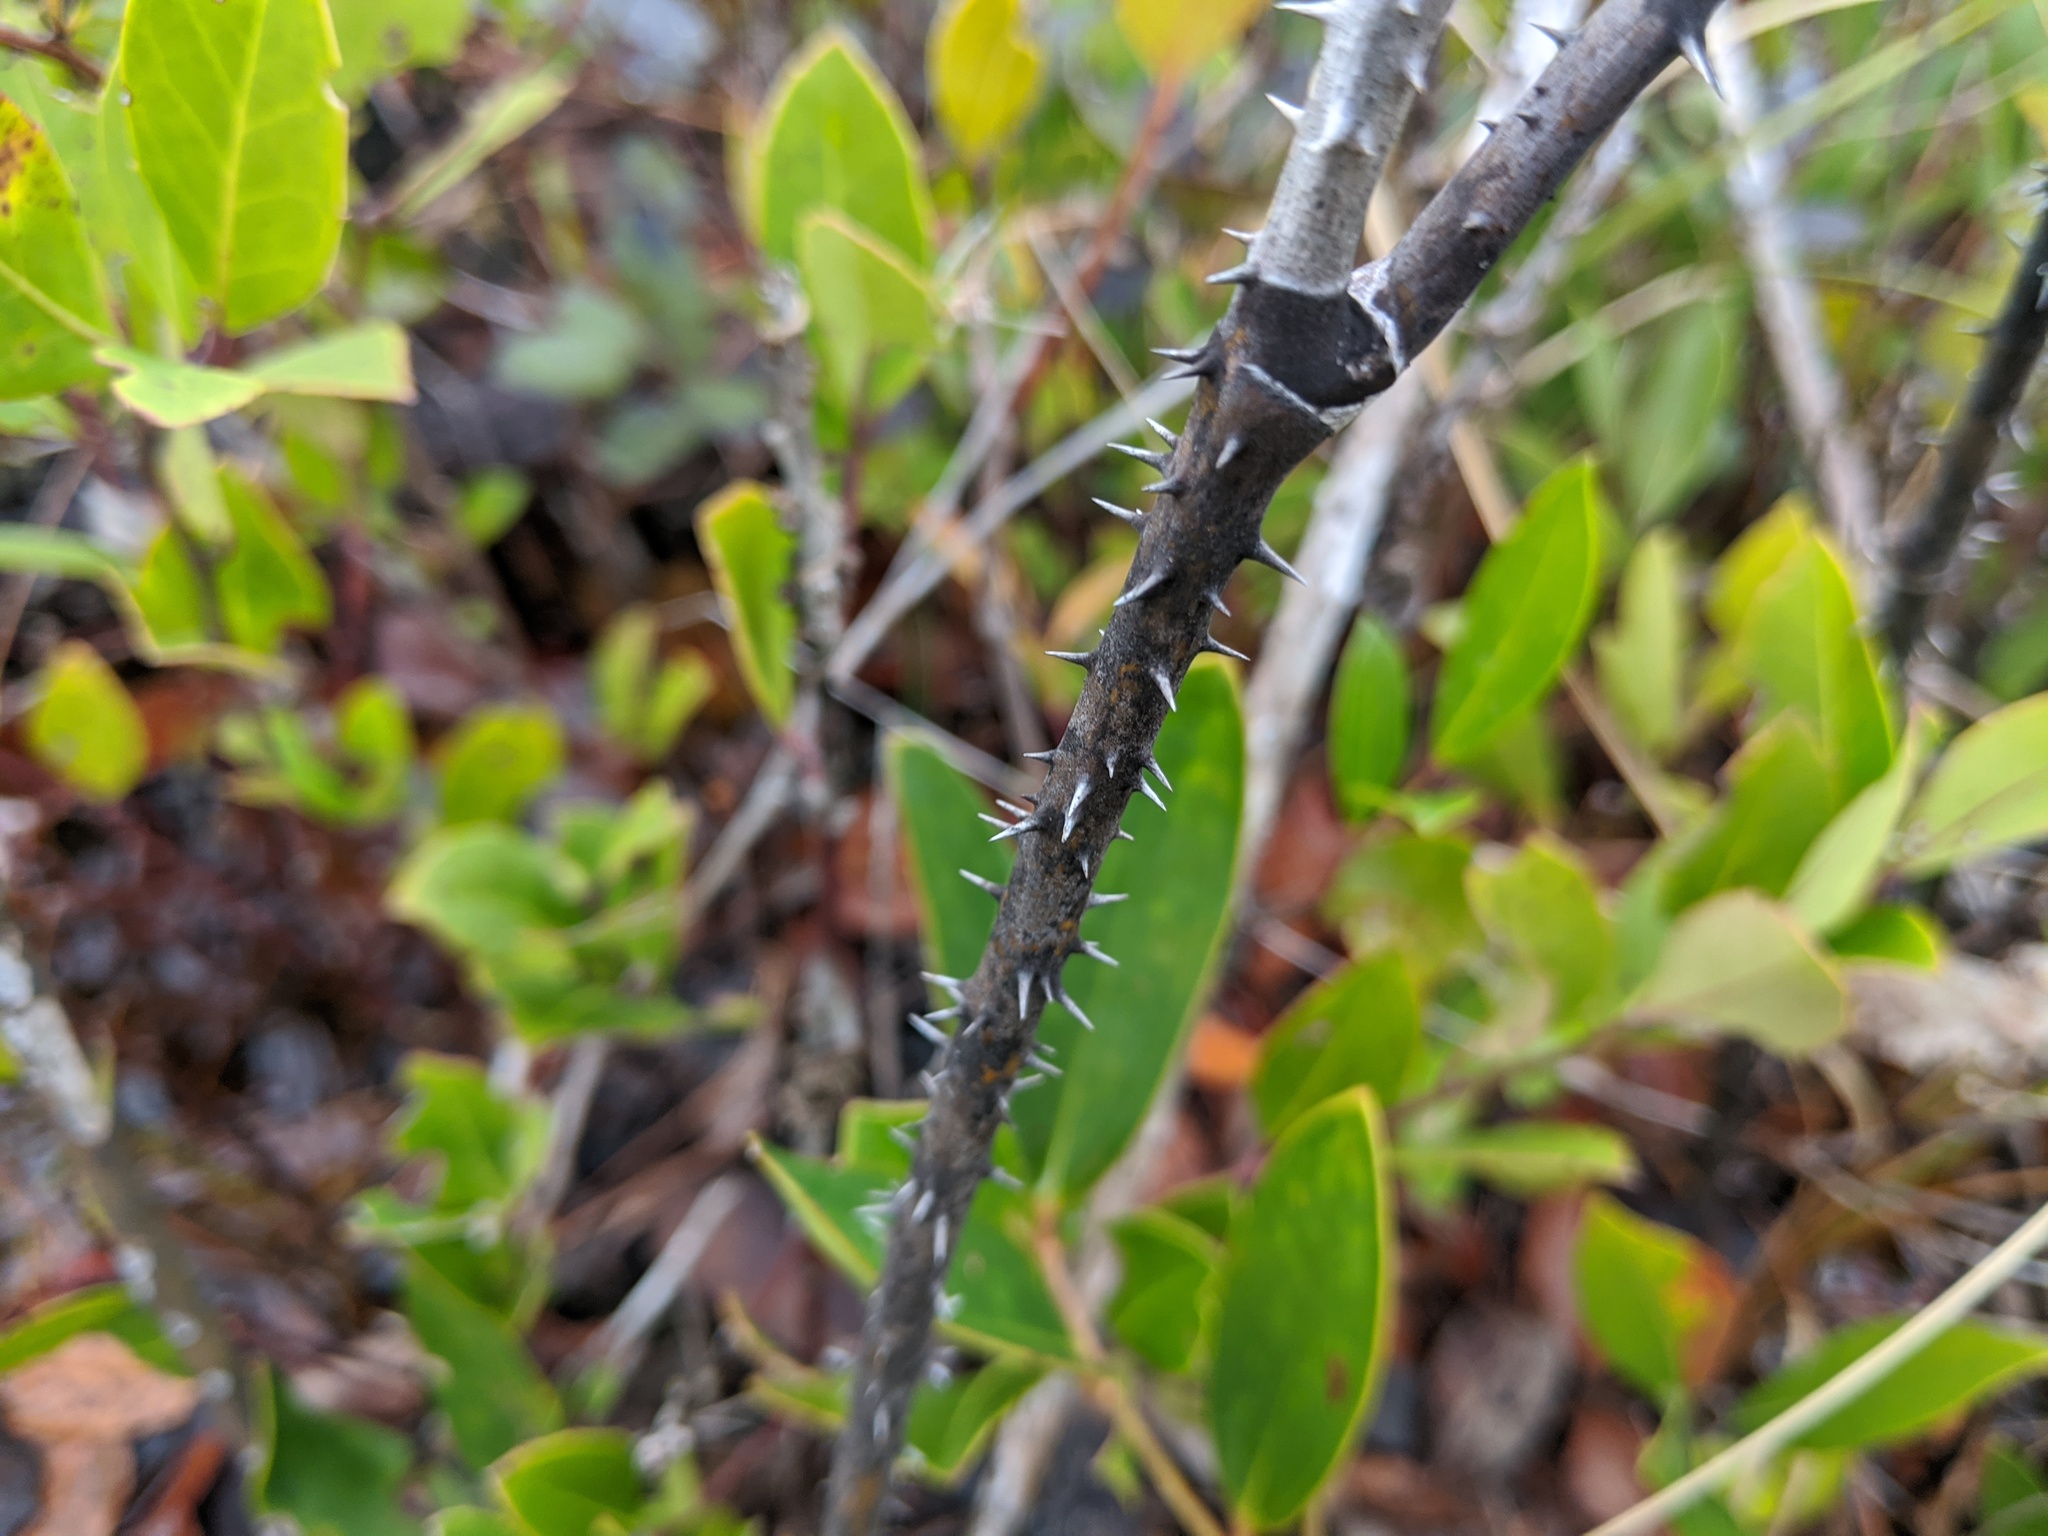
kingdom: Plantae
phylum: Tracheophyta
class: Liliopsida
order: Liliales
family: Smilacaceae
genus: Smilax
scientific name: Smilax laurifolia
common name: Bamboovine
